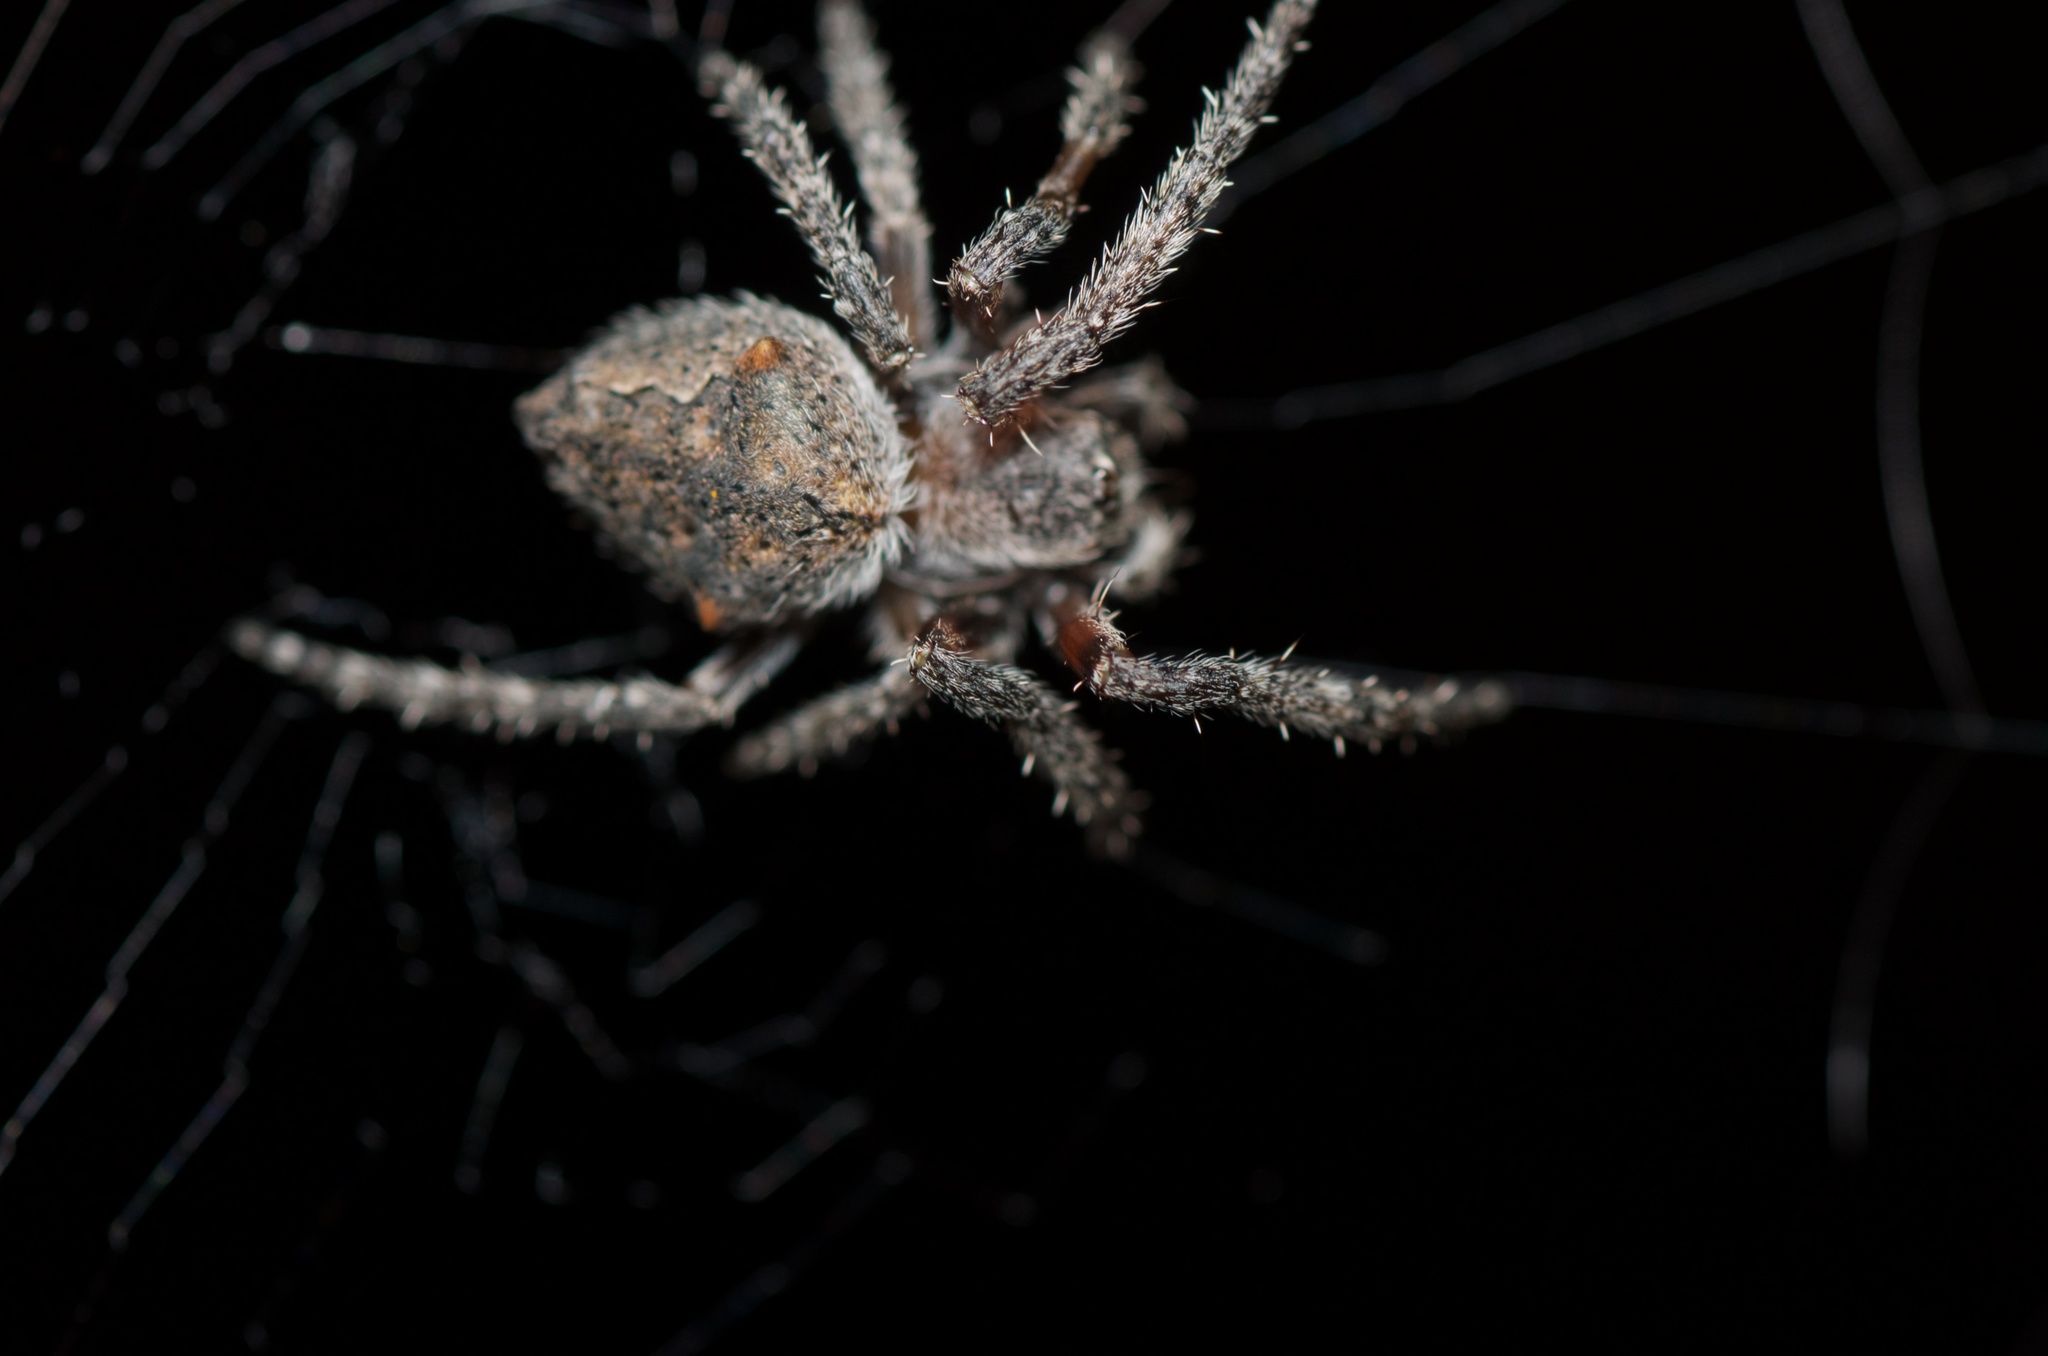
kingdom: Animalia
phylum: Arthropoda
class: Arachnida
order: Araneae
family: Araneidae
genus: Eriophora
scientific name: Eriophora pustulosa
